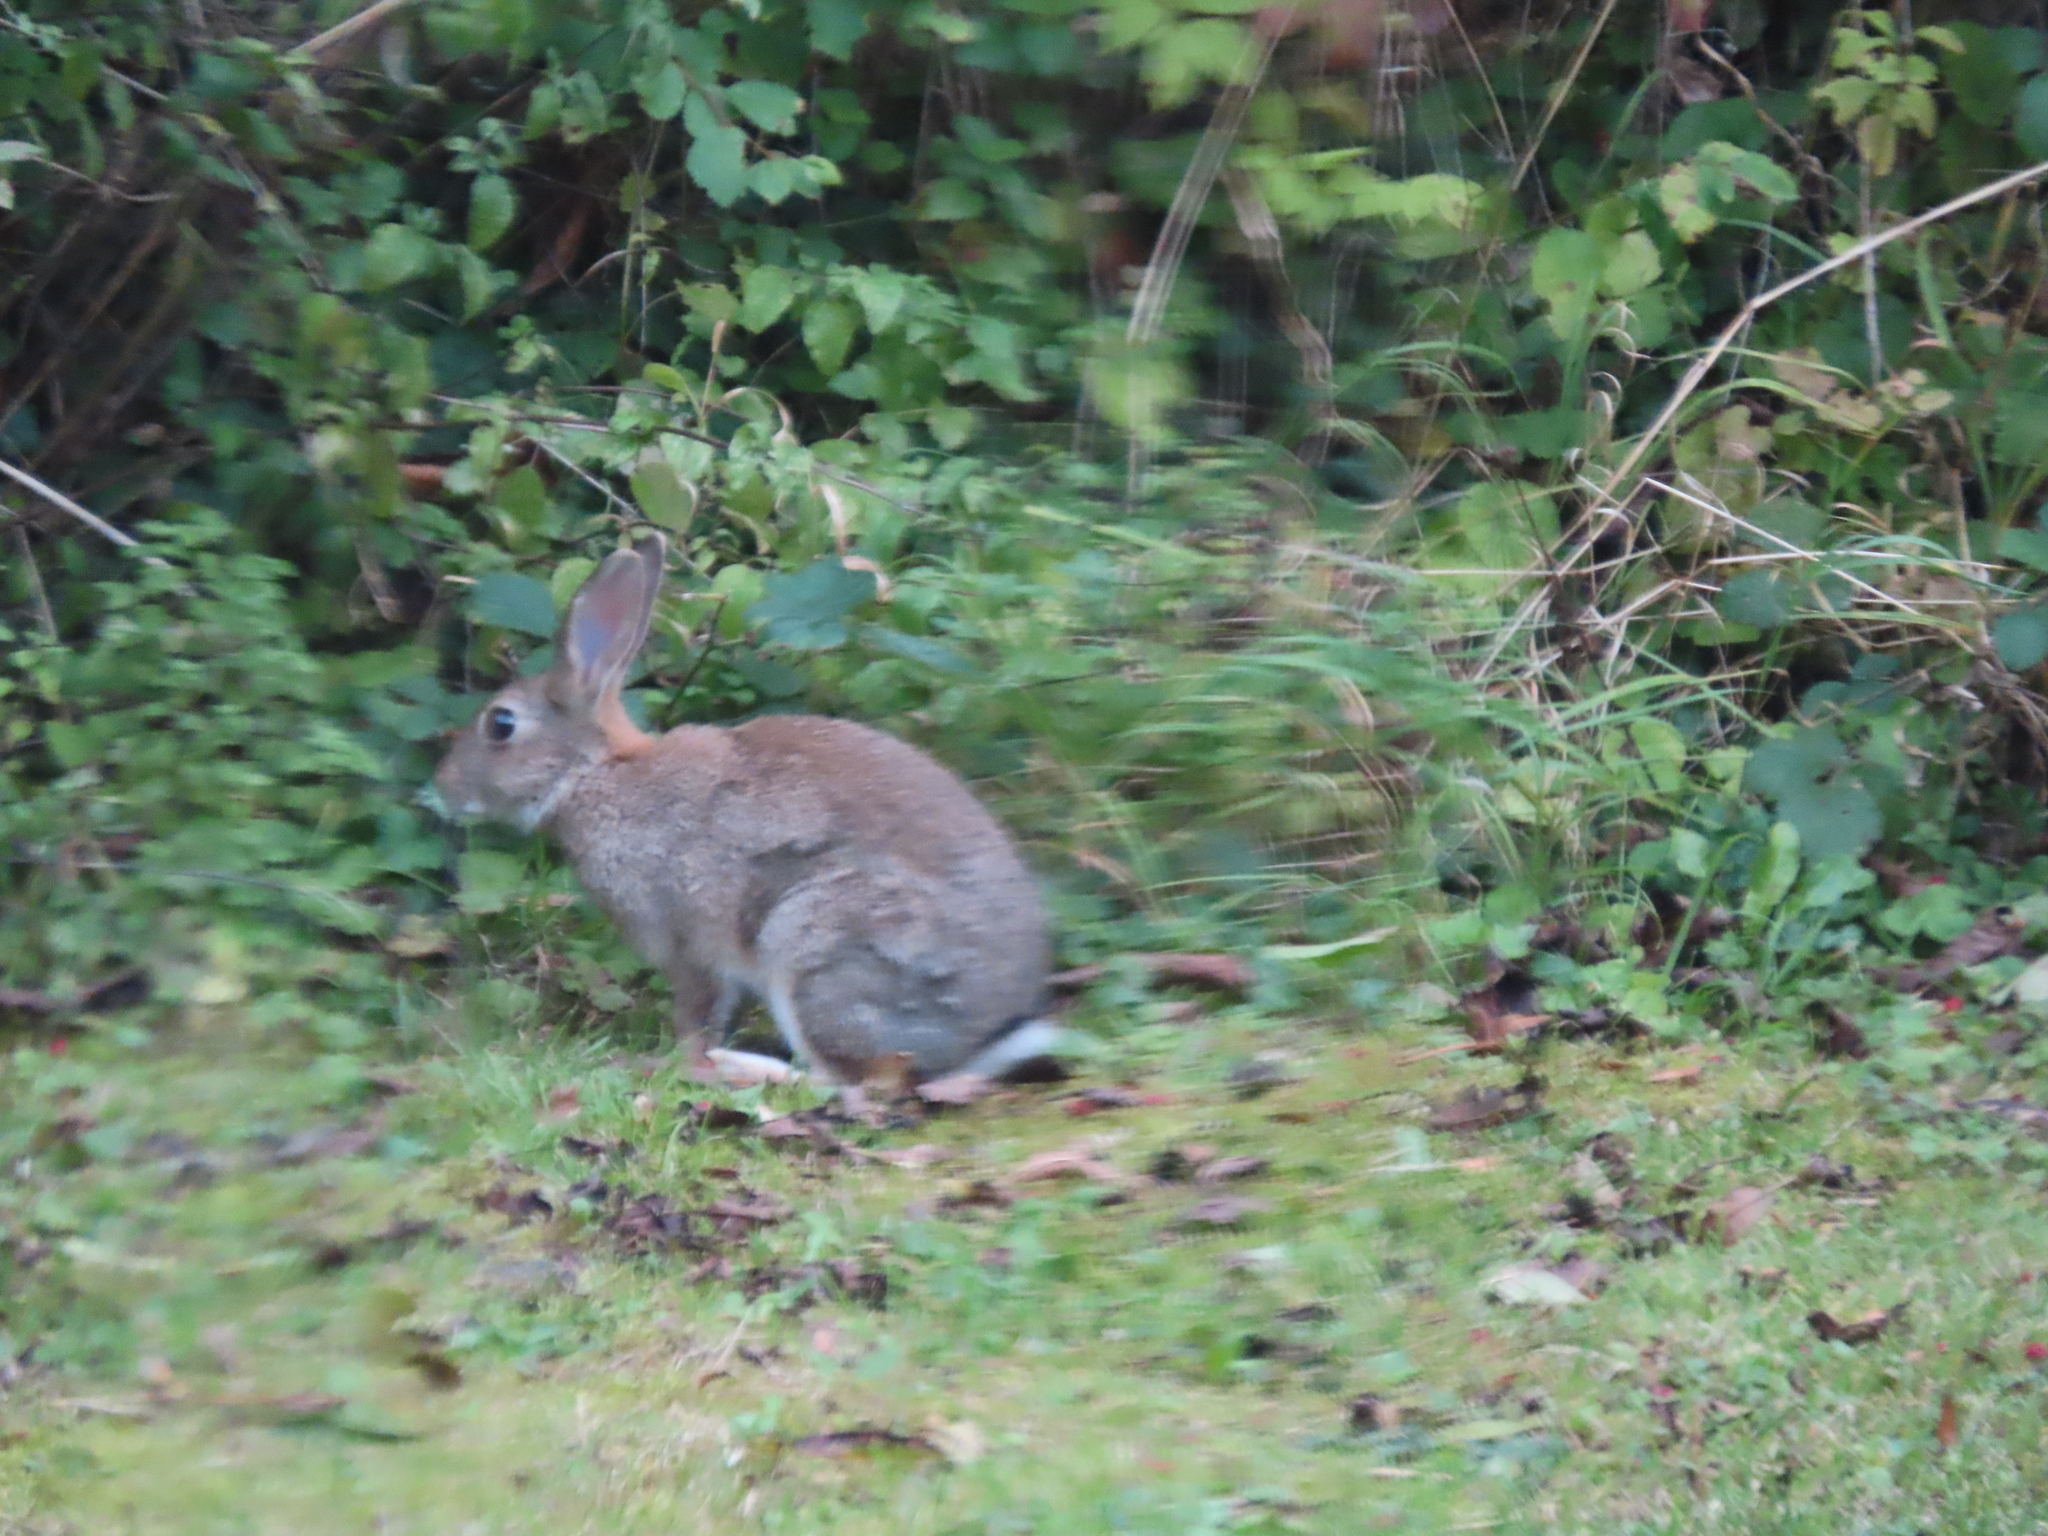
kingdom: Animalia
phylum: Chordata
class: Mammalia
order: Lagomorpha
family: Leporidae
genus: Oryctolagus
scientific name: Oryctolagus cuniculus
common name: European rabbit
